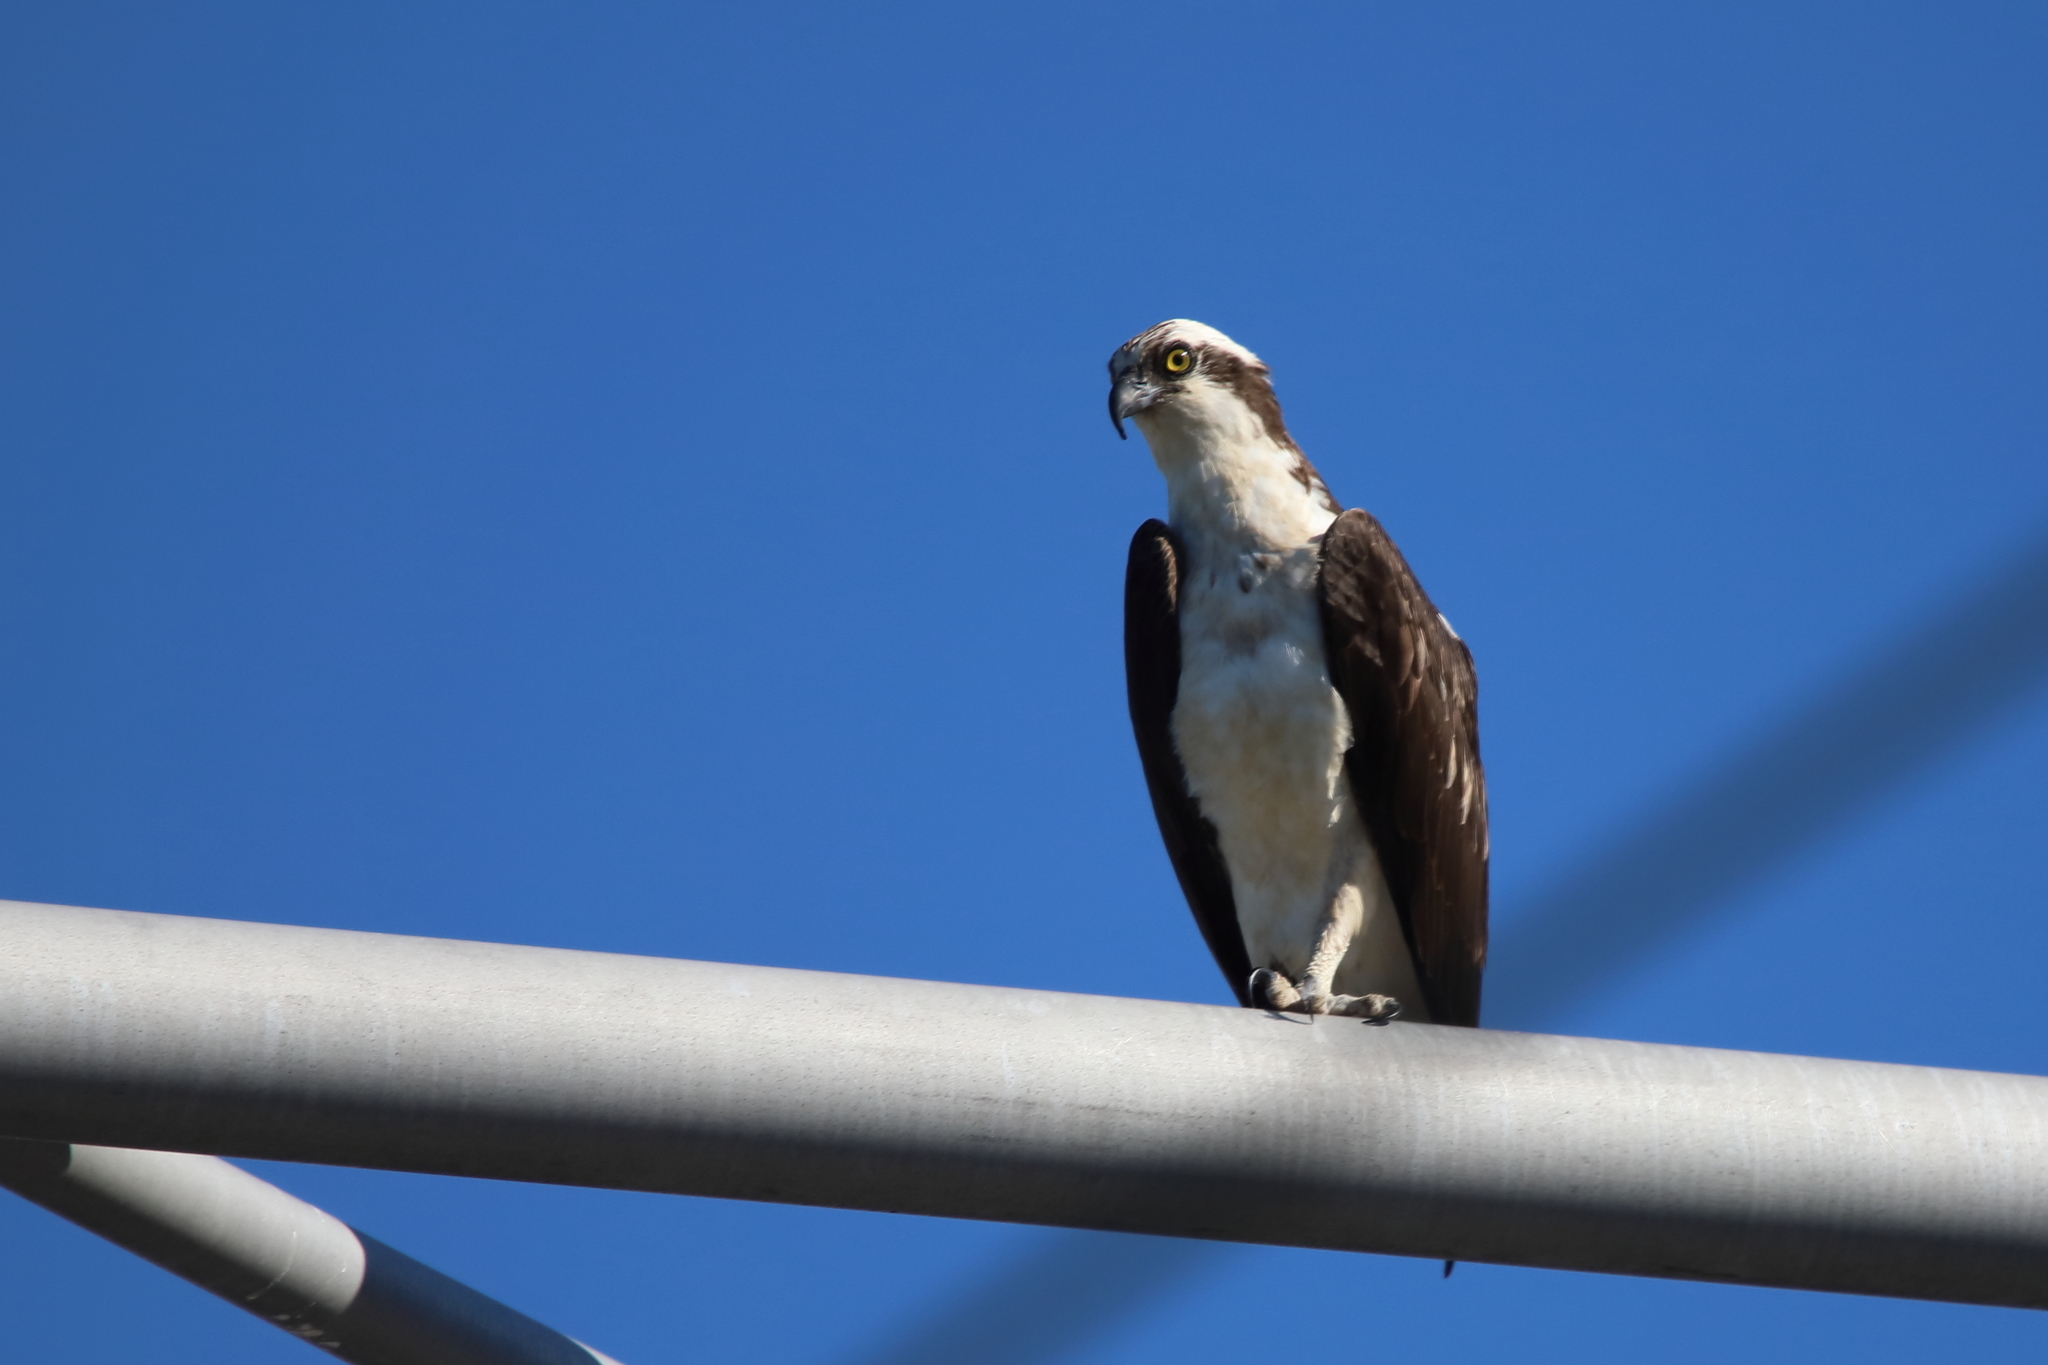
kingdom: Animalia
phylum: Chordata
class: Aves
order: Accipitriformes
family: Pandionidae
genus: Pandion
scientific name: Pandion haliaetus
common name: Osprey
